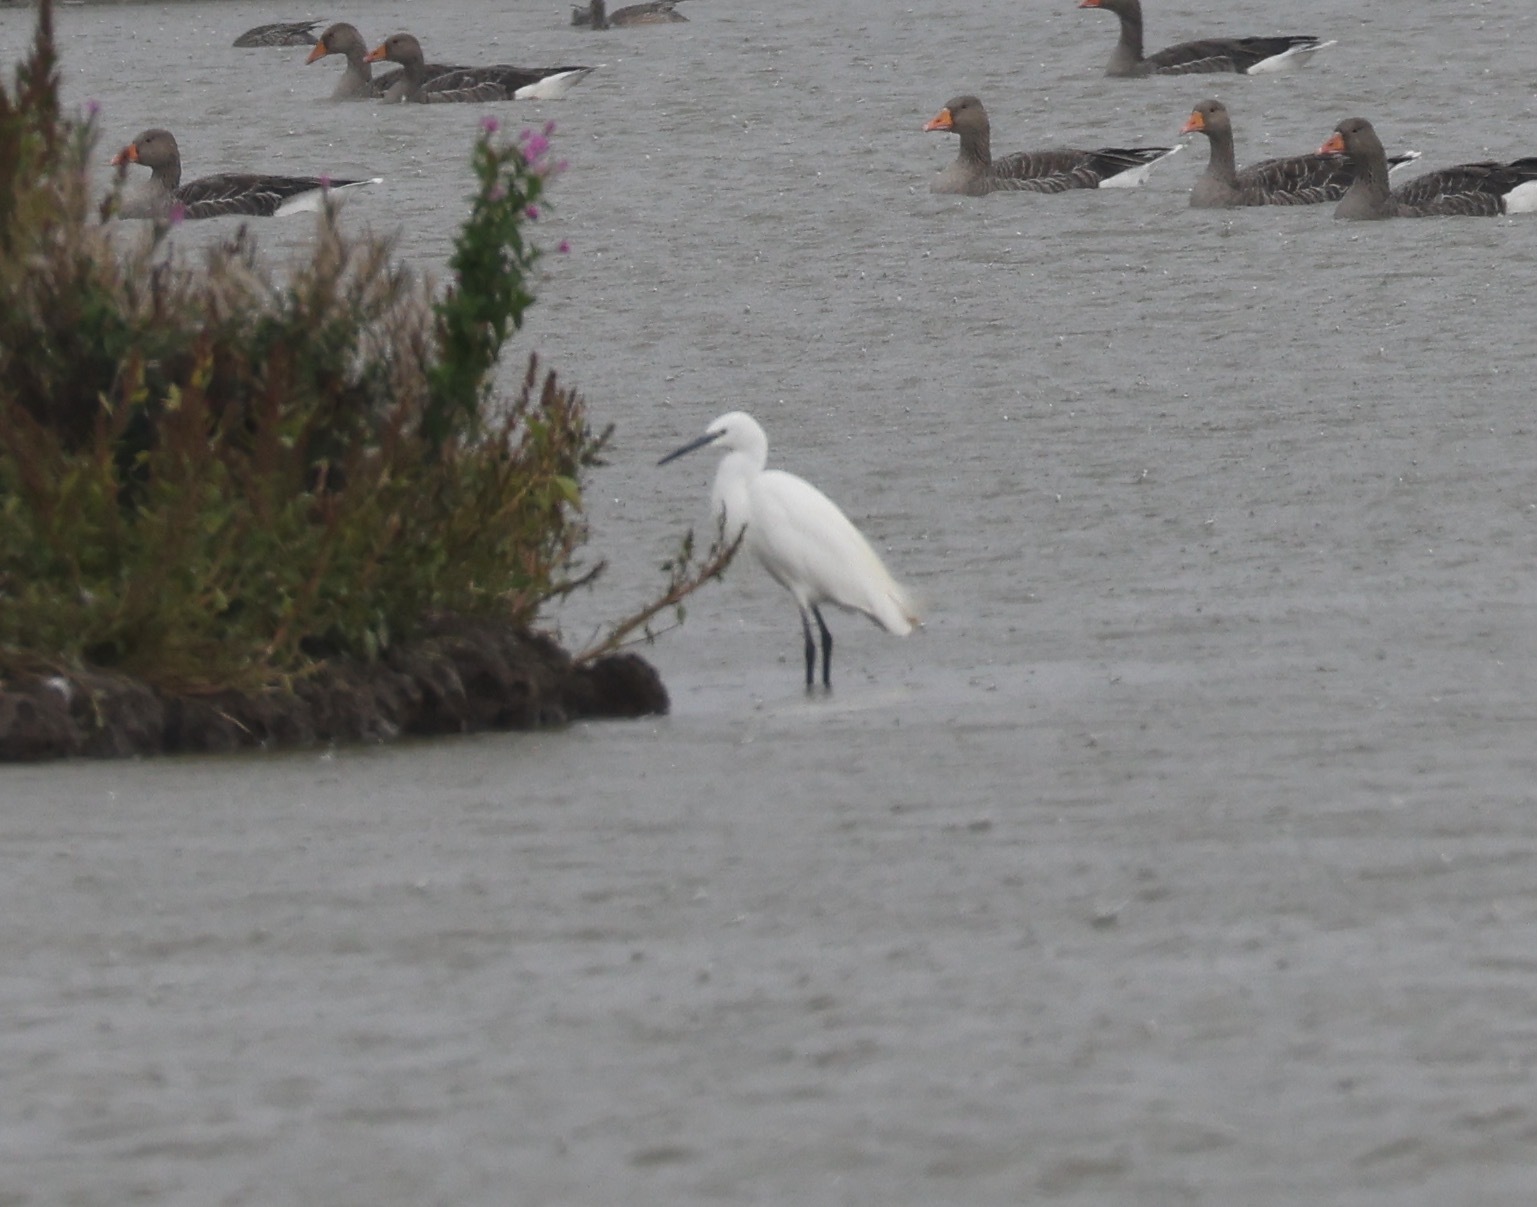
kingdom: Animalia
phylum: Chordata
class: Aves
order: Pelecaniformes
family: Ardeidae
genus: Egretta
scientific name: Egretta garzetta
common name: Little egret
